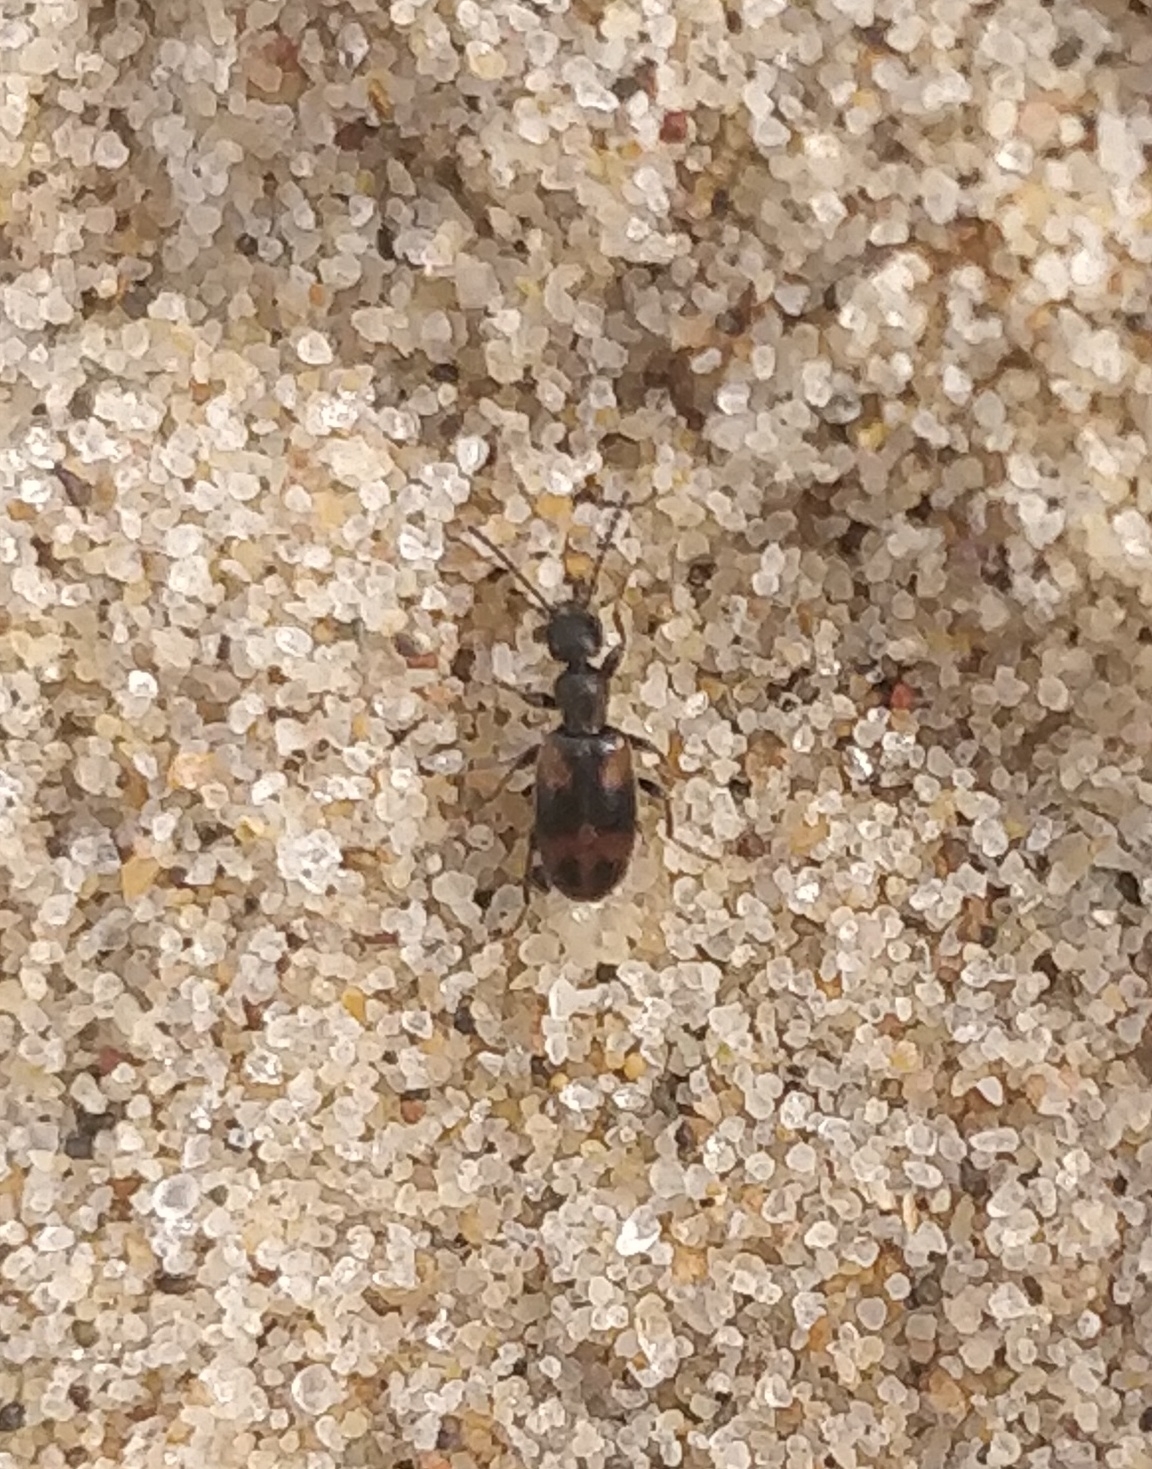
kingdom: Animalia
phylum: Arthropoda
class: Insecta
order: Coleoptera
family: Anthicidae
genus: Anthicus
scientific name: Anthicus antherinus
